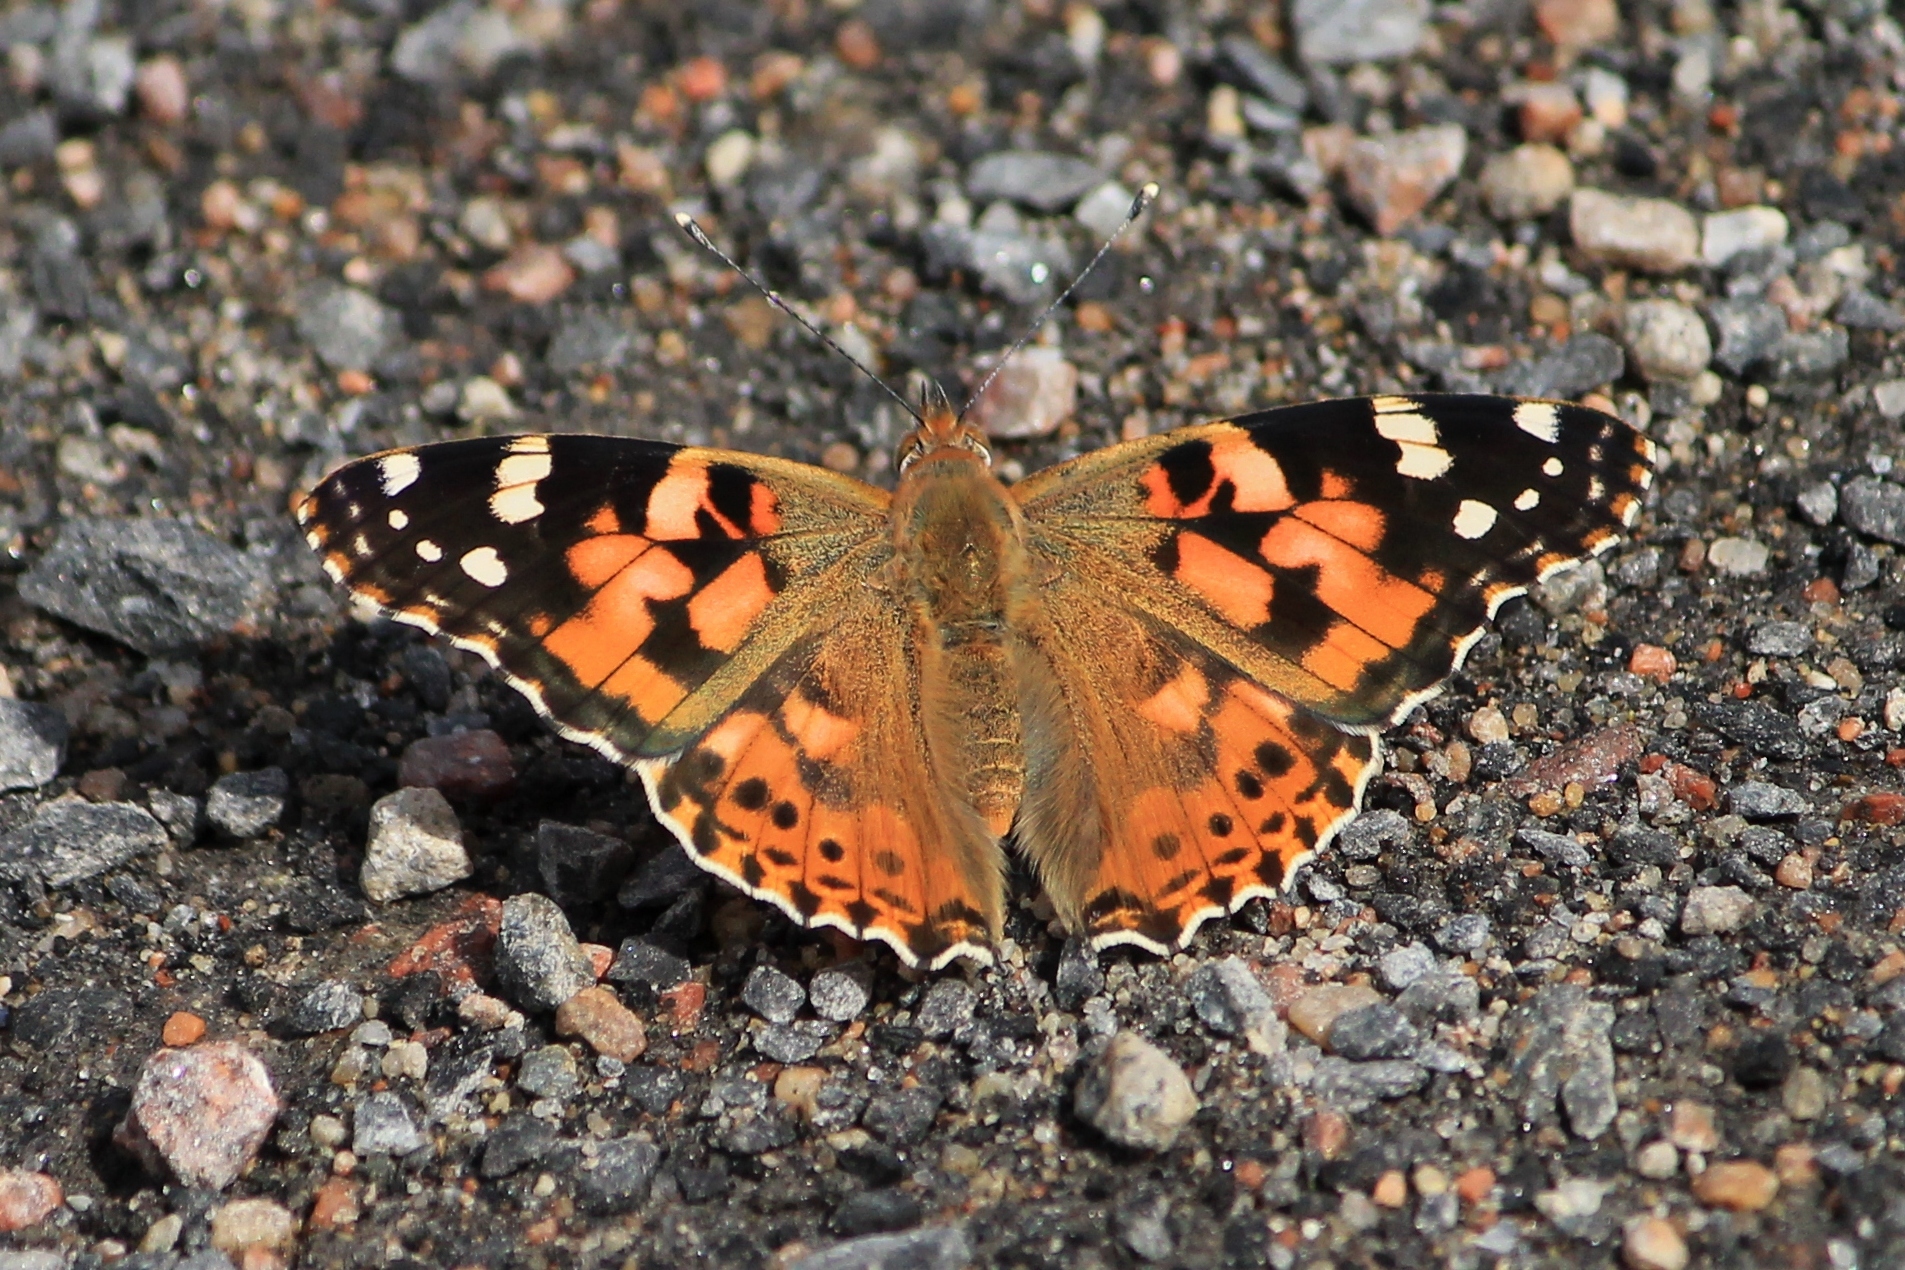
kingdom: Animalia
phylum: Arthropoda
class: Insecta
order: Lepidoptera
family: Nymphalidae
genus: Vanessa
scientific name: Vanessa cardui
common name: Painted lady
